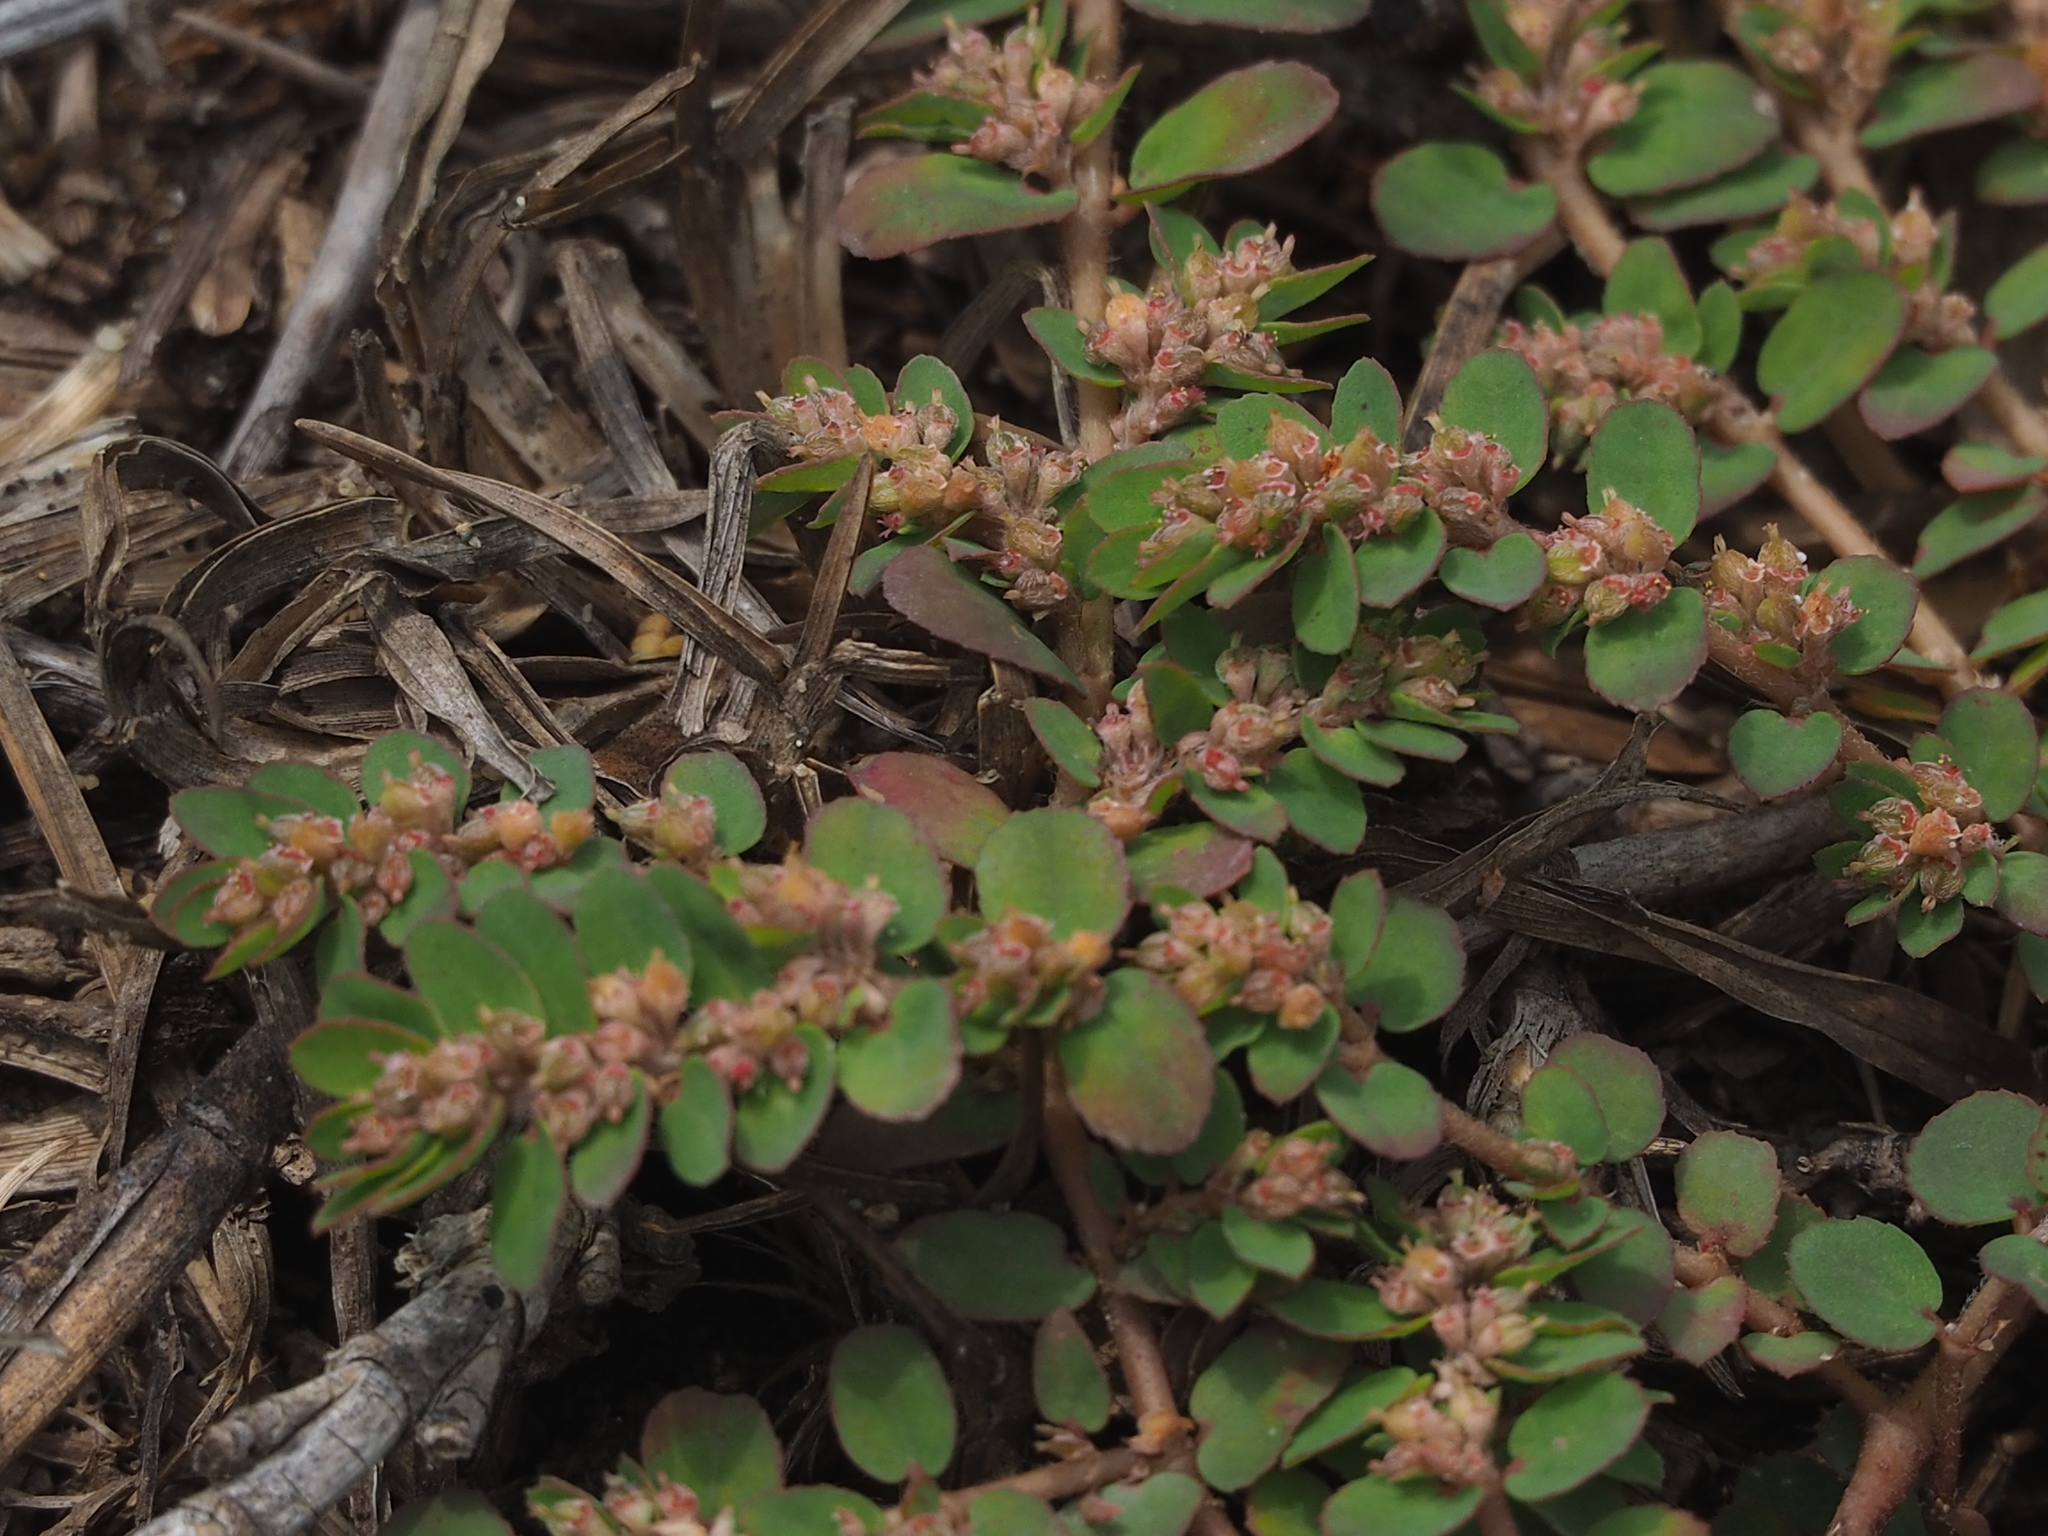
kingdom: Plantae
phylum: Tracheophyta
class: Magnoliopsida
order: Malpighiales
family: Euphorbiaceae
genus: Euphorbia
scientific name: Euphorbia thymifolia
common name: Gulf sandmat
